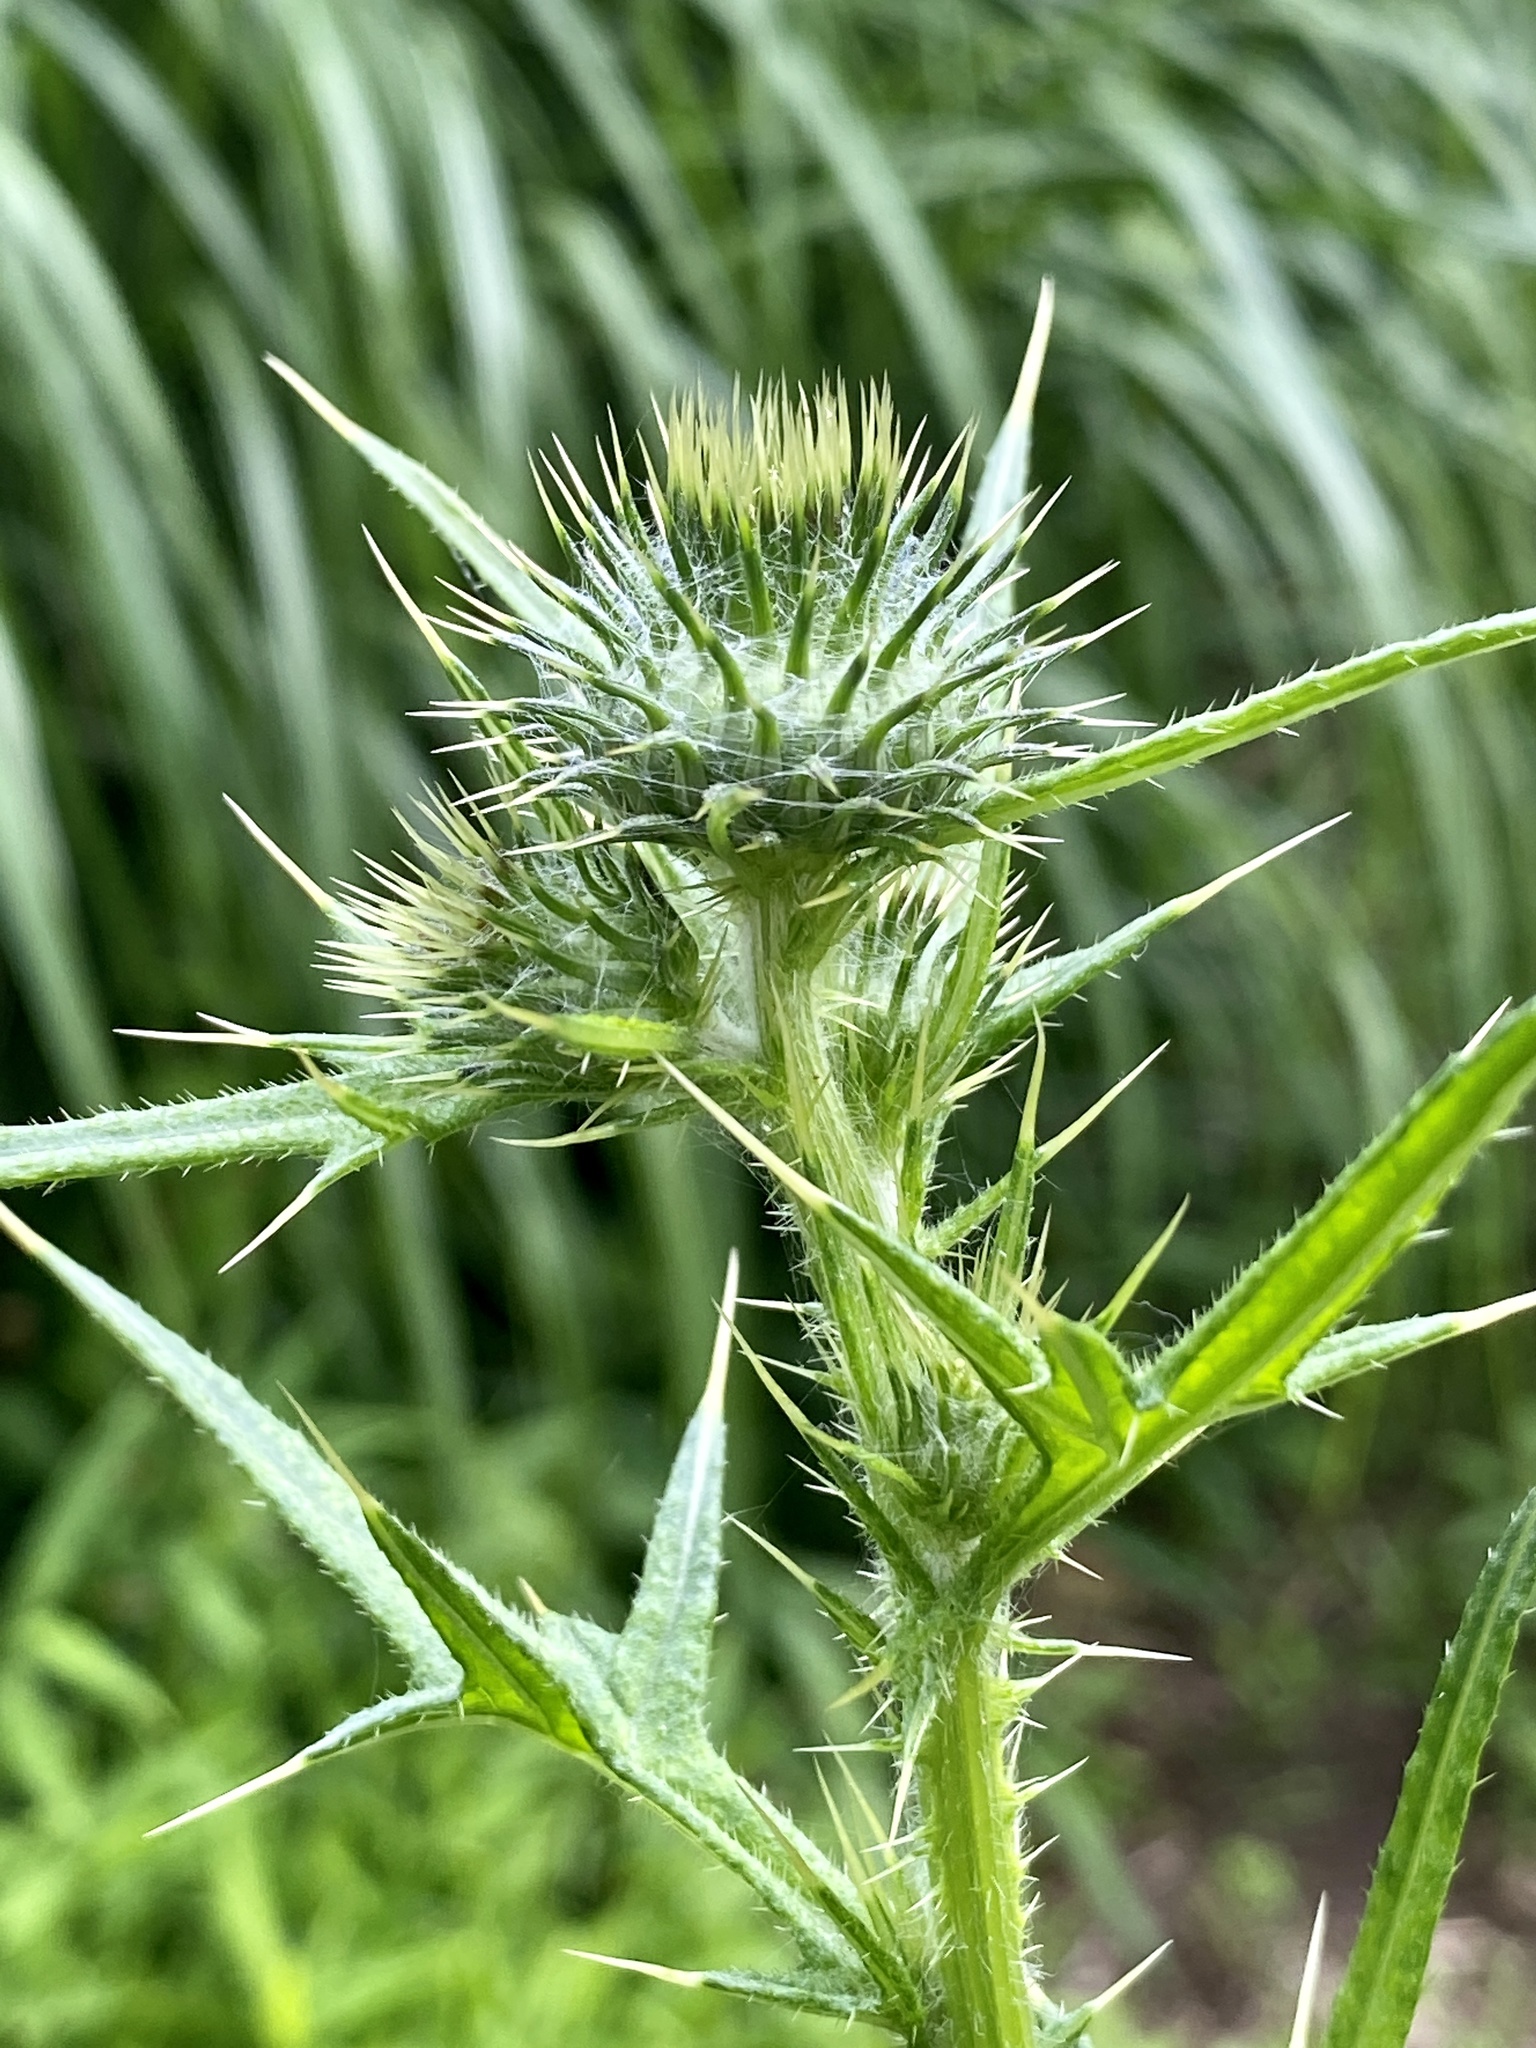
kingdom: Plantae
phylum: Tracheophyta
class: Magnoliopsida
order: Asterales
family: Asteraceae
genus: Cirsium
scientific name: Cirsium vulgare
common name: Bull thistle
